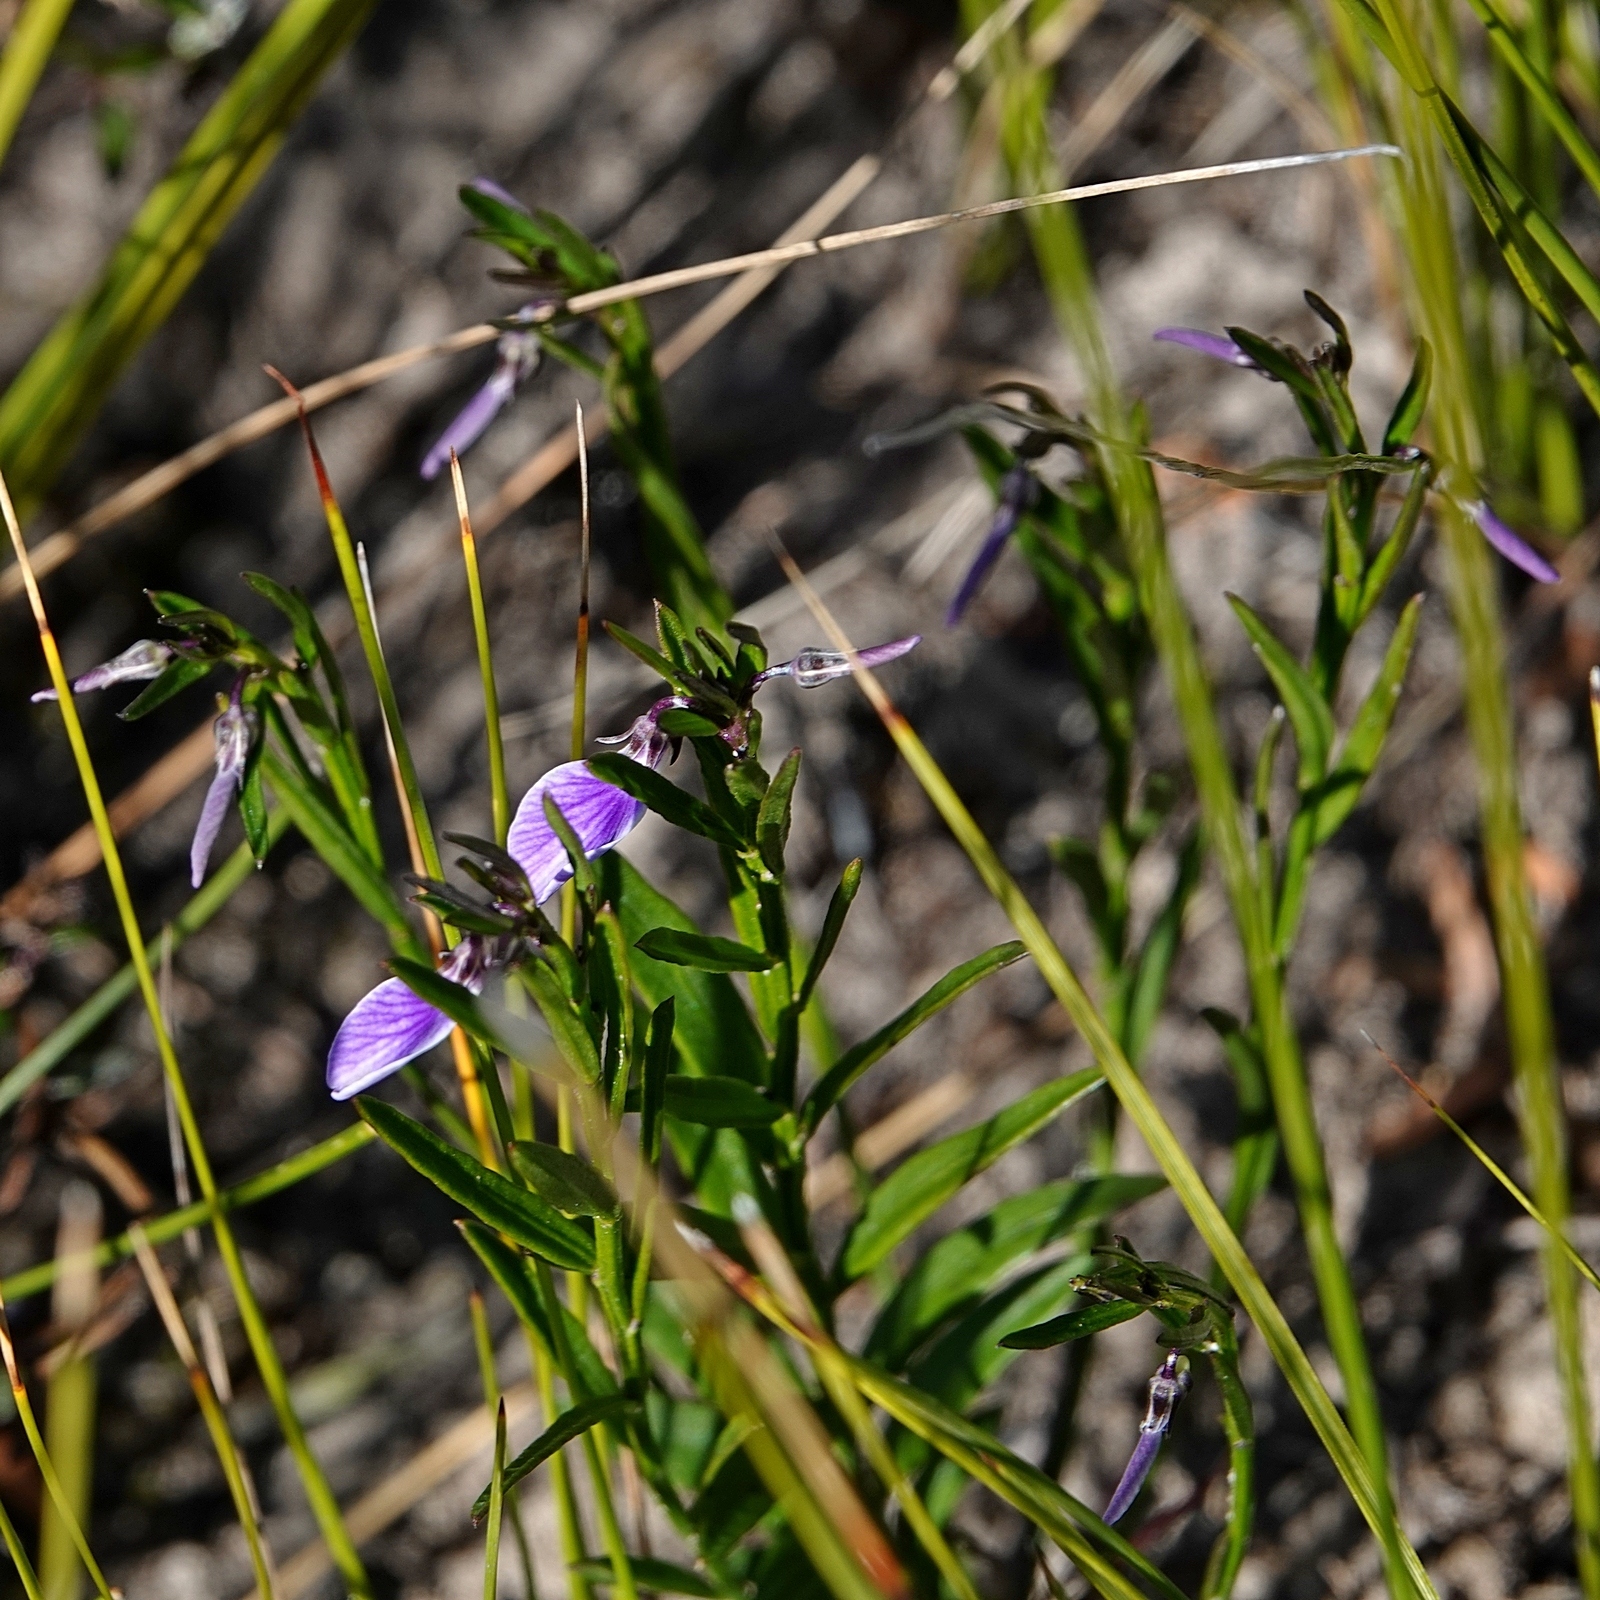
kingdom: Plantae
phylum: Tracheophyta
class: Magnoliopsida
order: Malpighiales
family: Violaceae
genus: Pigea
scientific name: Pigea vernonii
